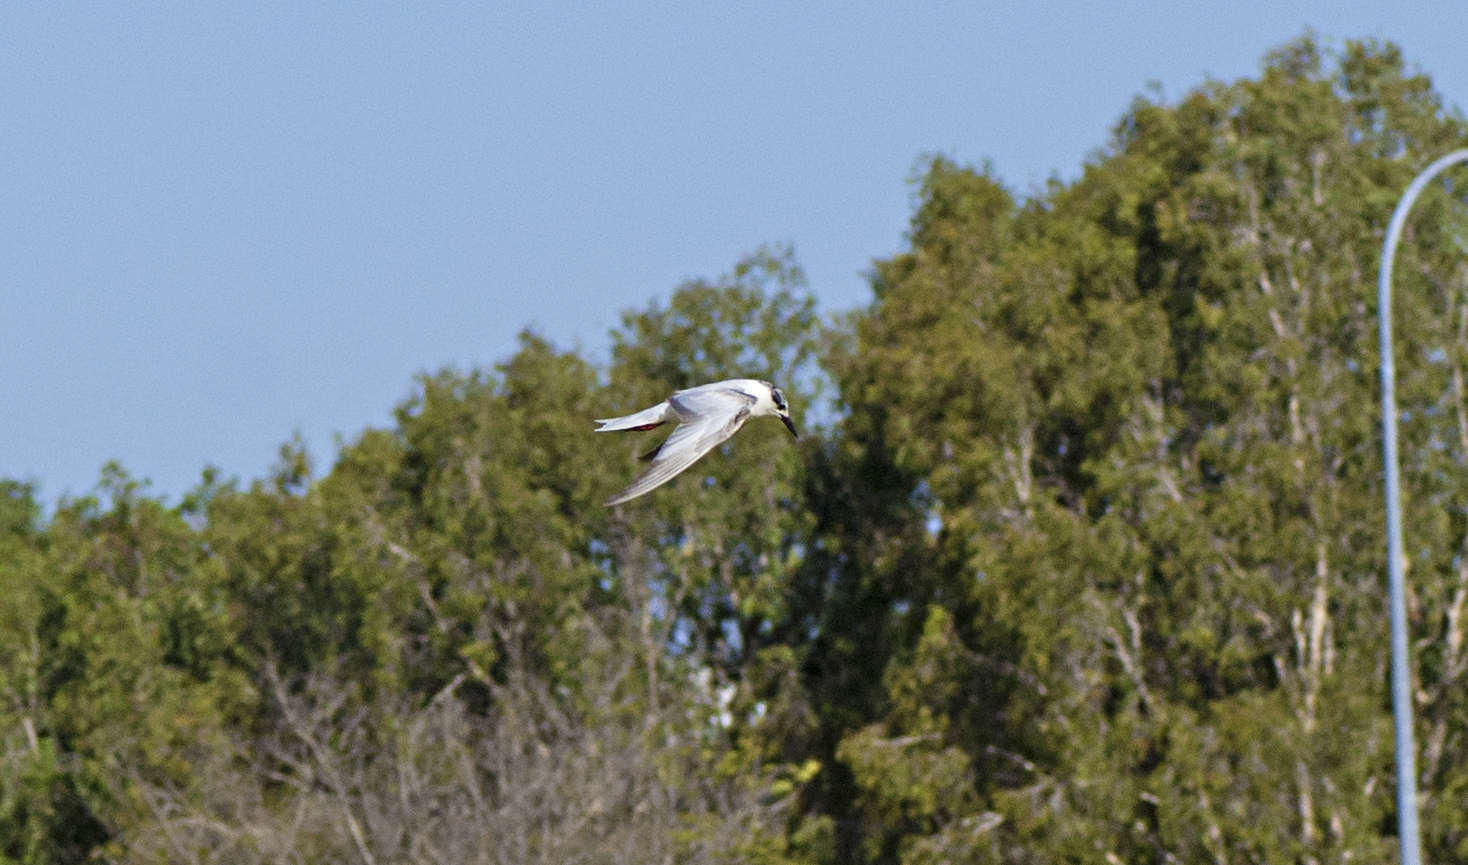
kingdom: Animalia
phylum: Chordata
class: Aves
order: Charadriiformes
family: Laridae
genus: Chlidonias
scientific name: Chlidonias hybrida
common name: Whiskered tern
